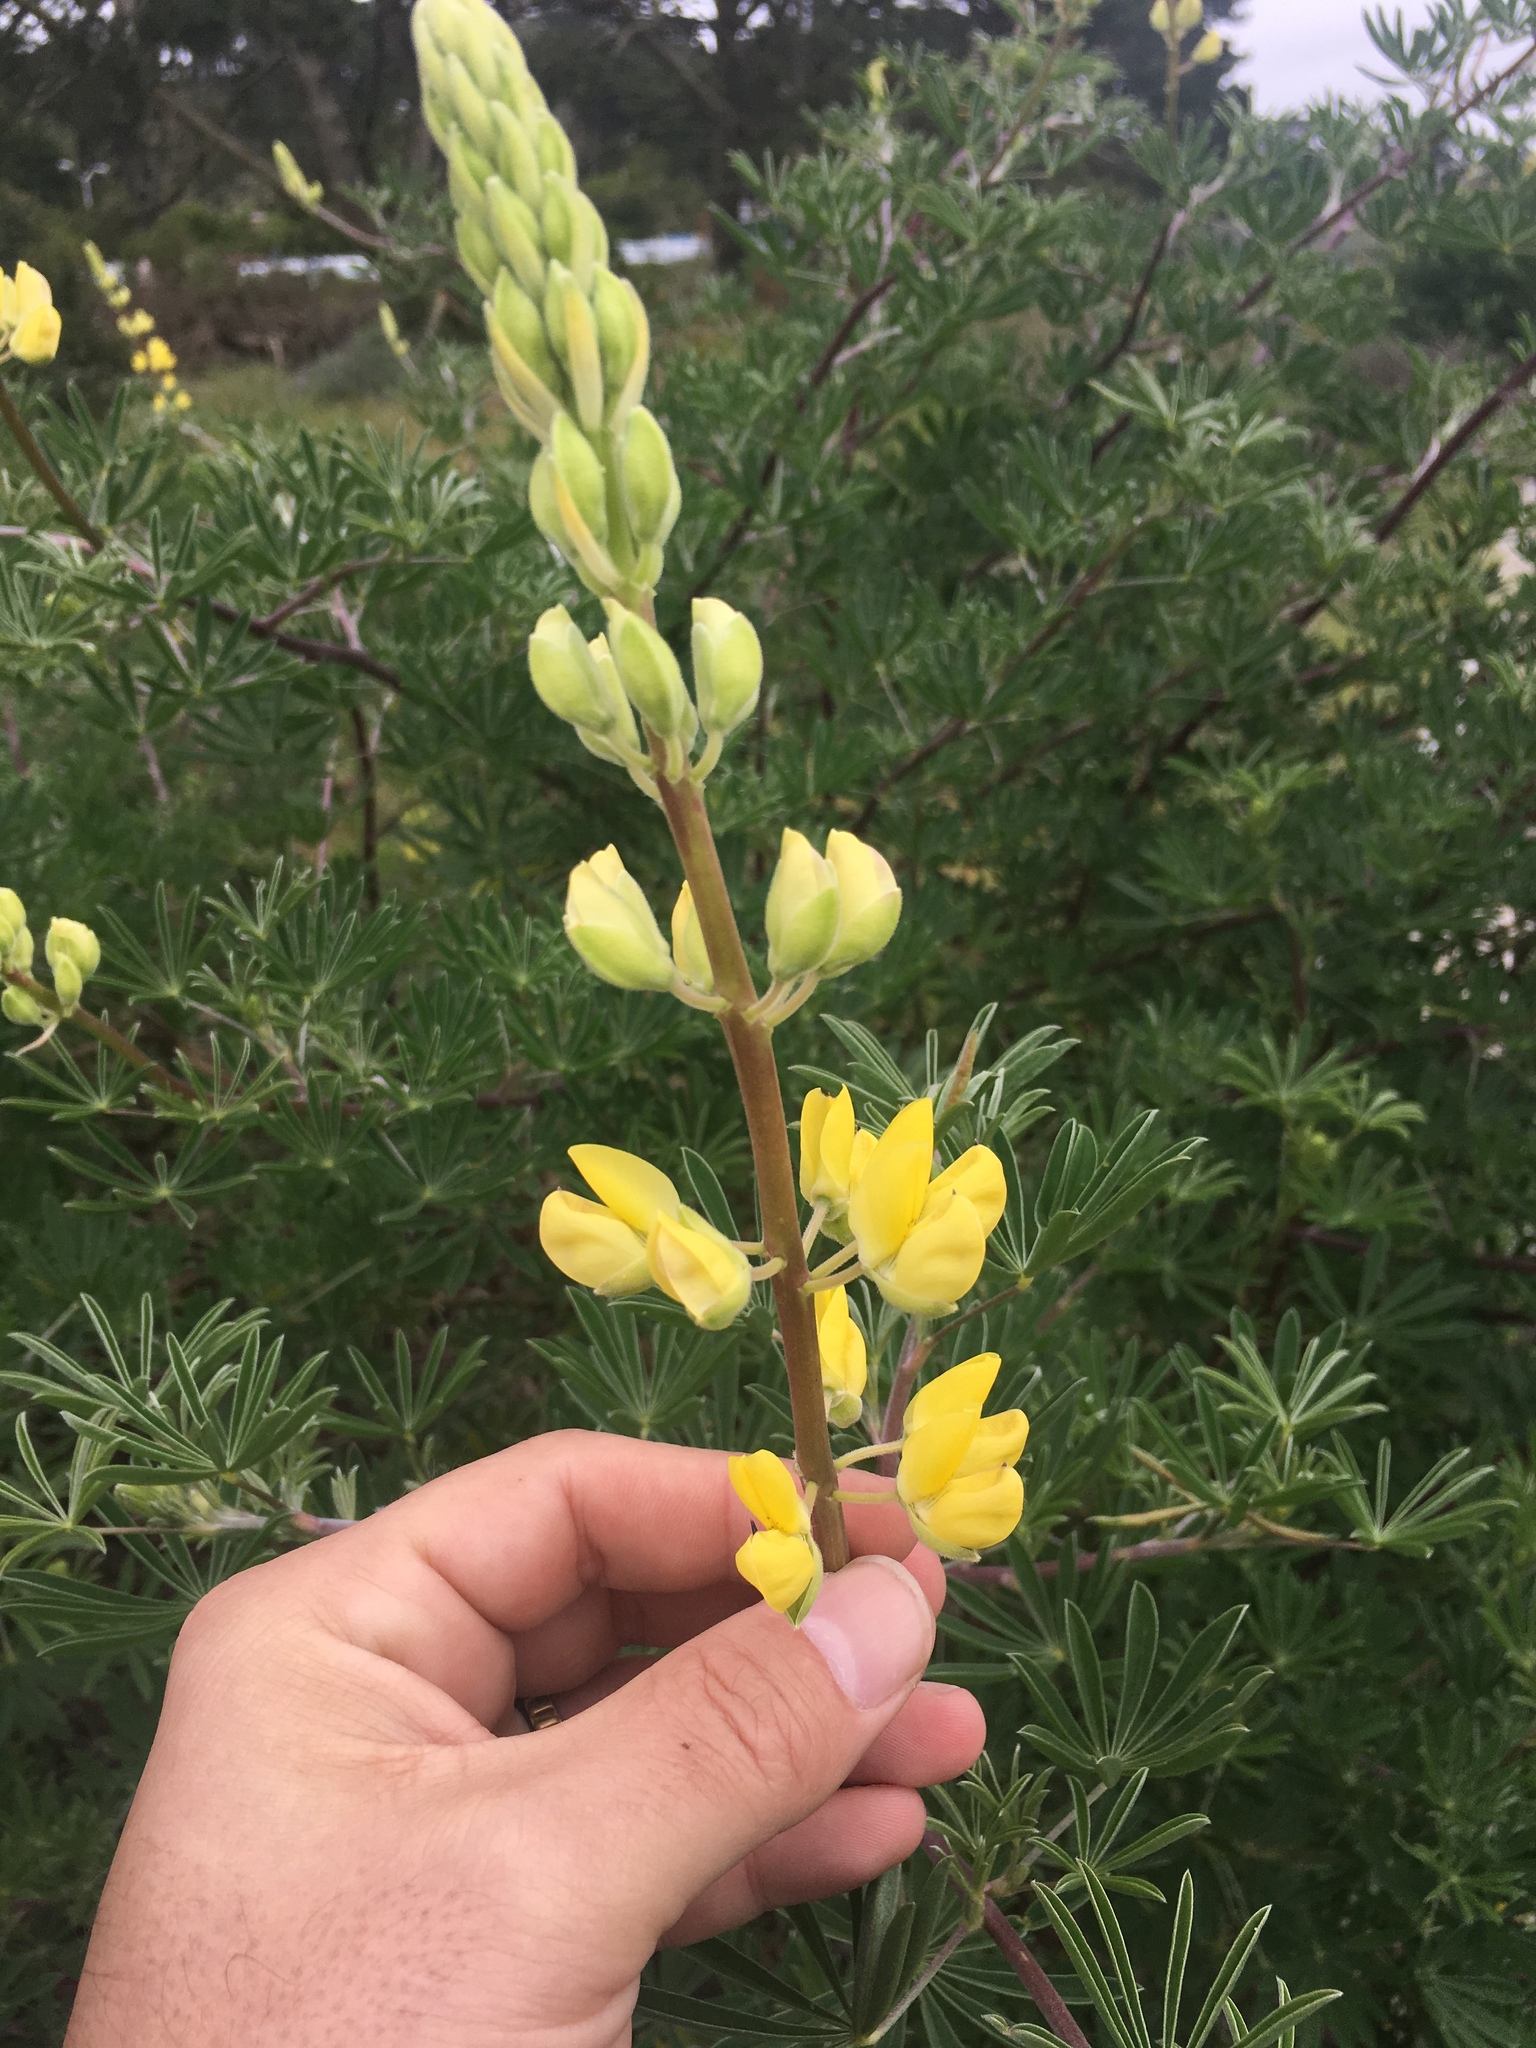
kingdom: Plantae
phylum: Tracheophyta
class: Magnoliopsida
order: Fabales
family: Fabaceae
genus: Lupinus
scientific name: Lupinus arboreus
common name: Yellow bush lupine
